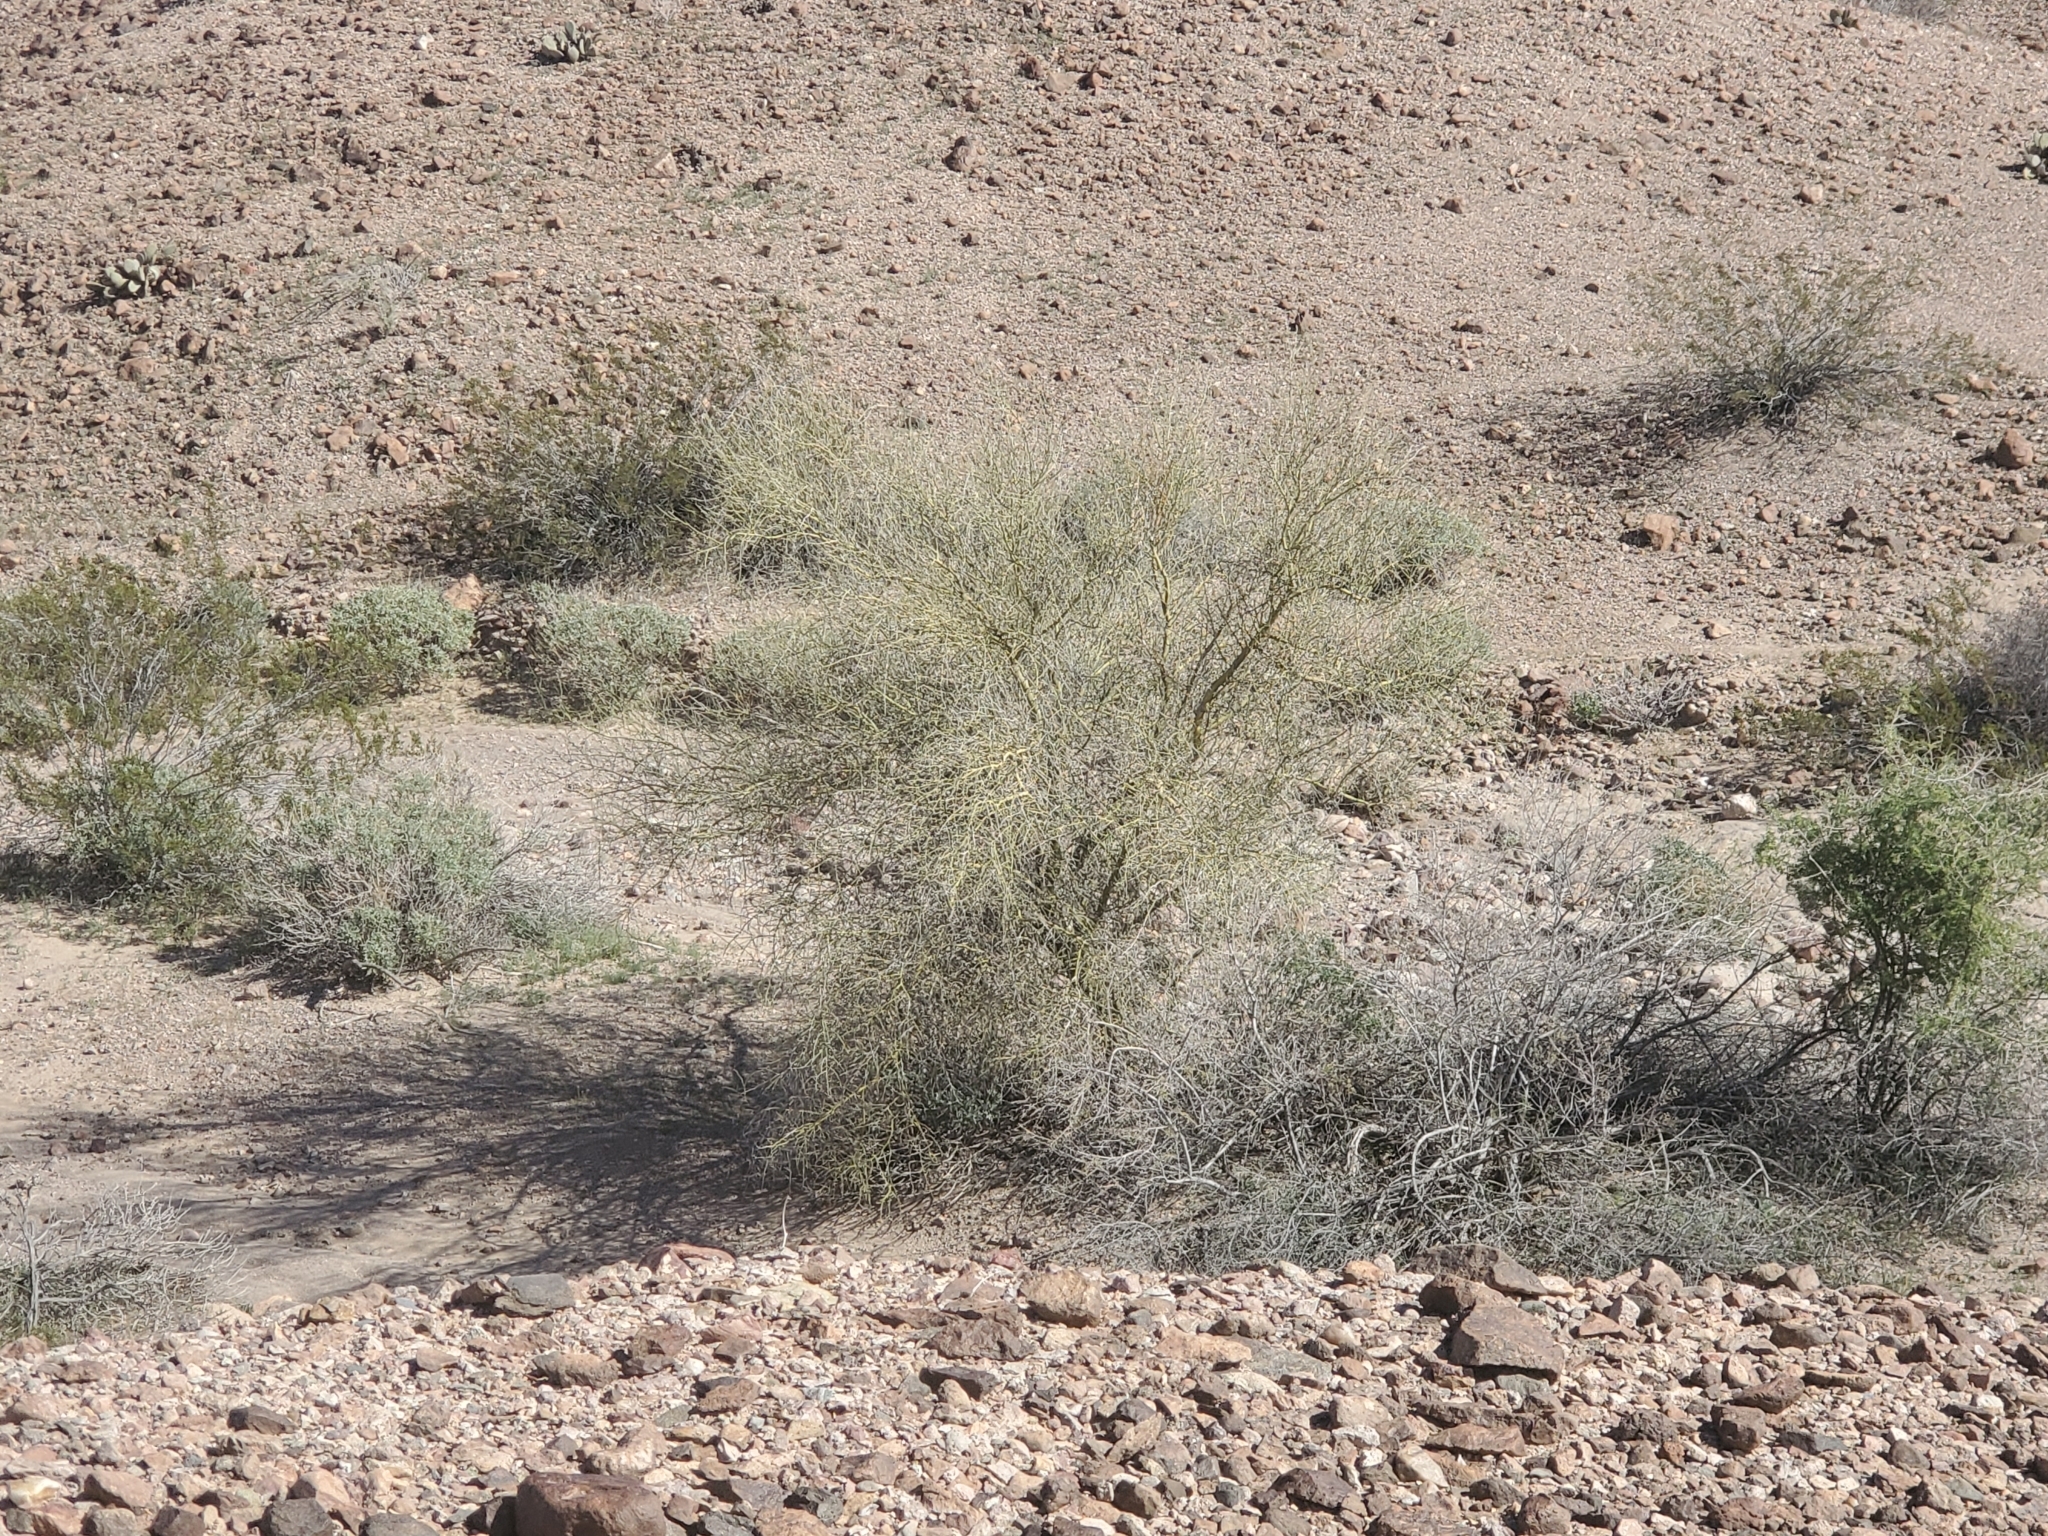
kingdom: Plantae
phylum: Tracheophyta
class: Magnoliopsida
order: Fabales
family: Fabaceae
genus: Parkinsonia
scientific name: Parkinsonia florida
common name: Blue paloverde
